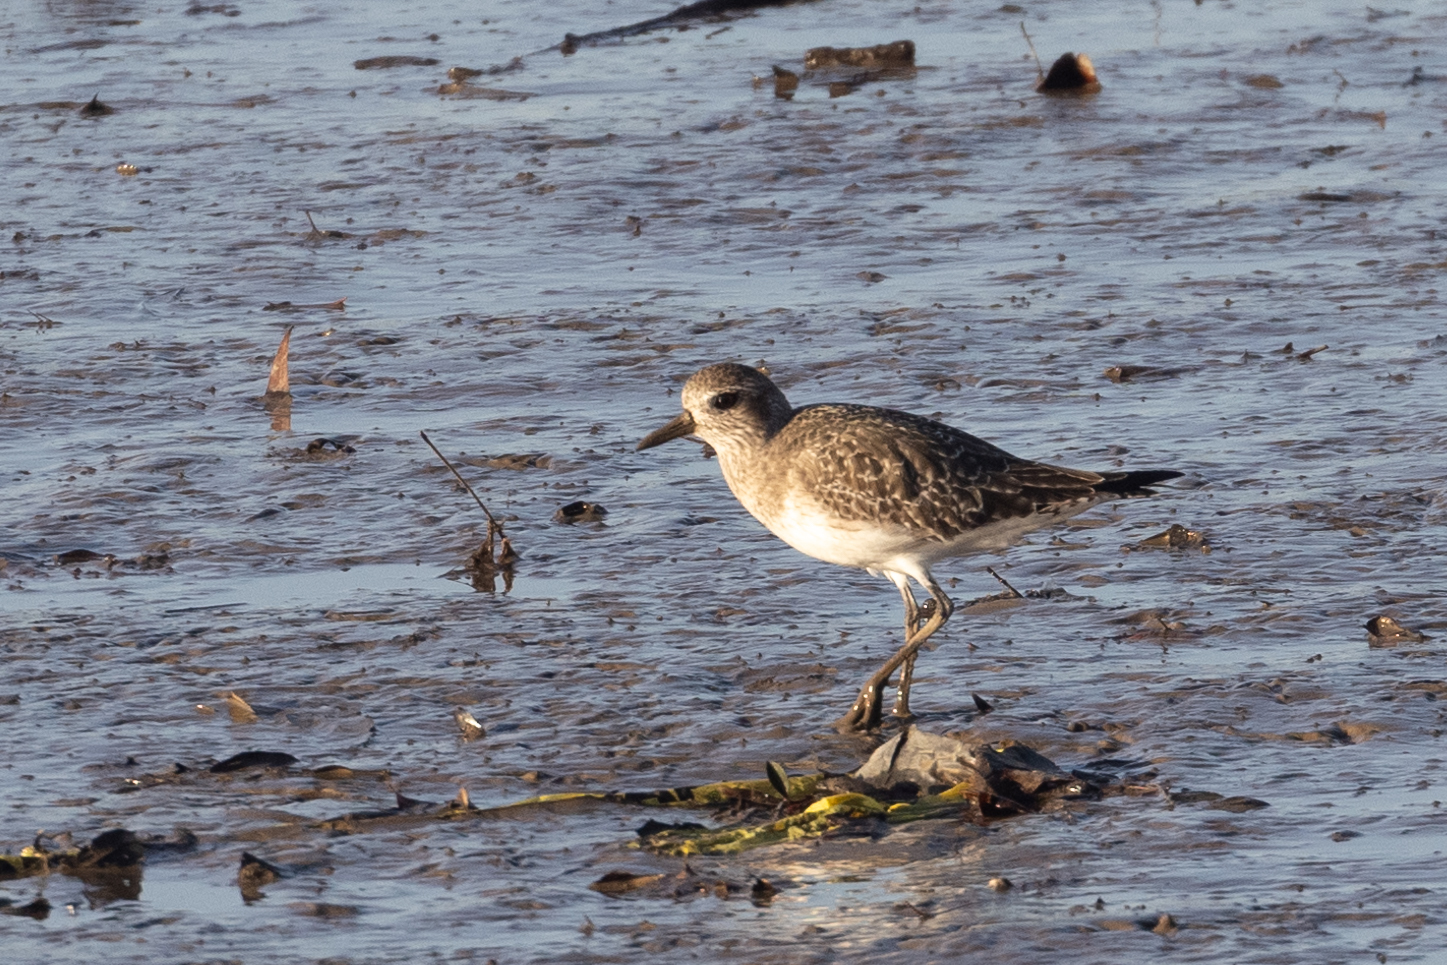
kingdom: Animalia
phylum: Chordata
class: Aves
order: Charadriiformes
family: Charadriidae
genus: Pluvialis
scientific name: Pluvialis squatarola
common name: Grey plover
